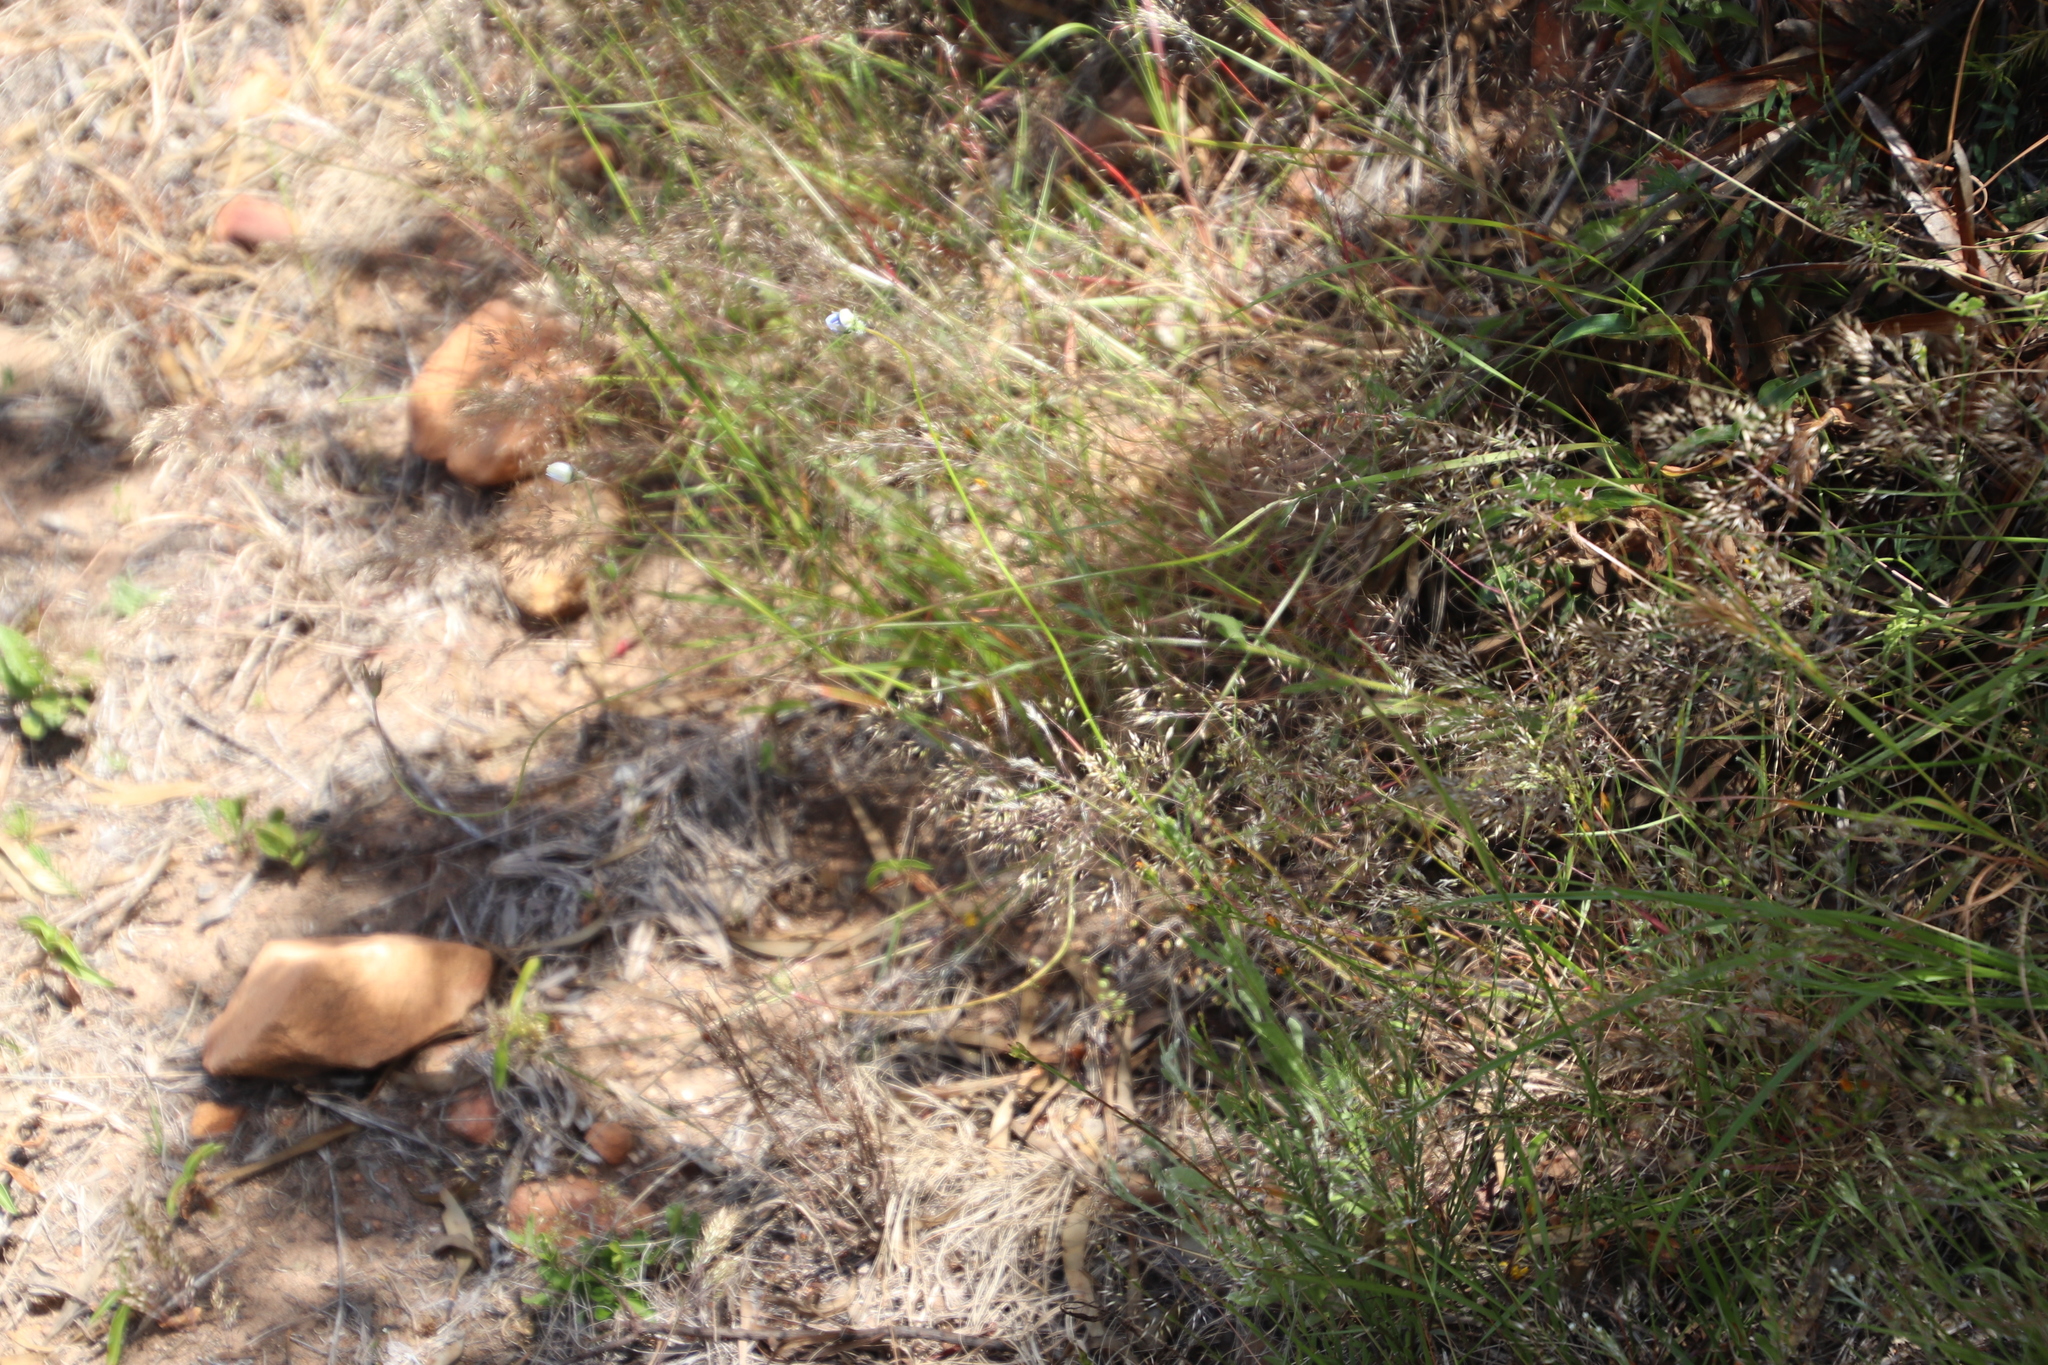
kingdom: Plantae
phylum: Tracheophyta
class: Magnoliopsida
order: Asterales
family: Campanulaceae
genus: Wahlenbergia
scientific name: Wahlenbergia capensis
